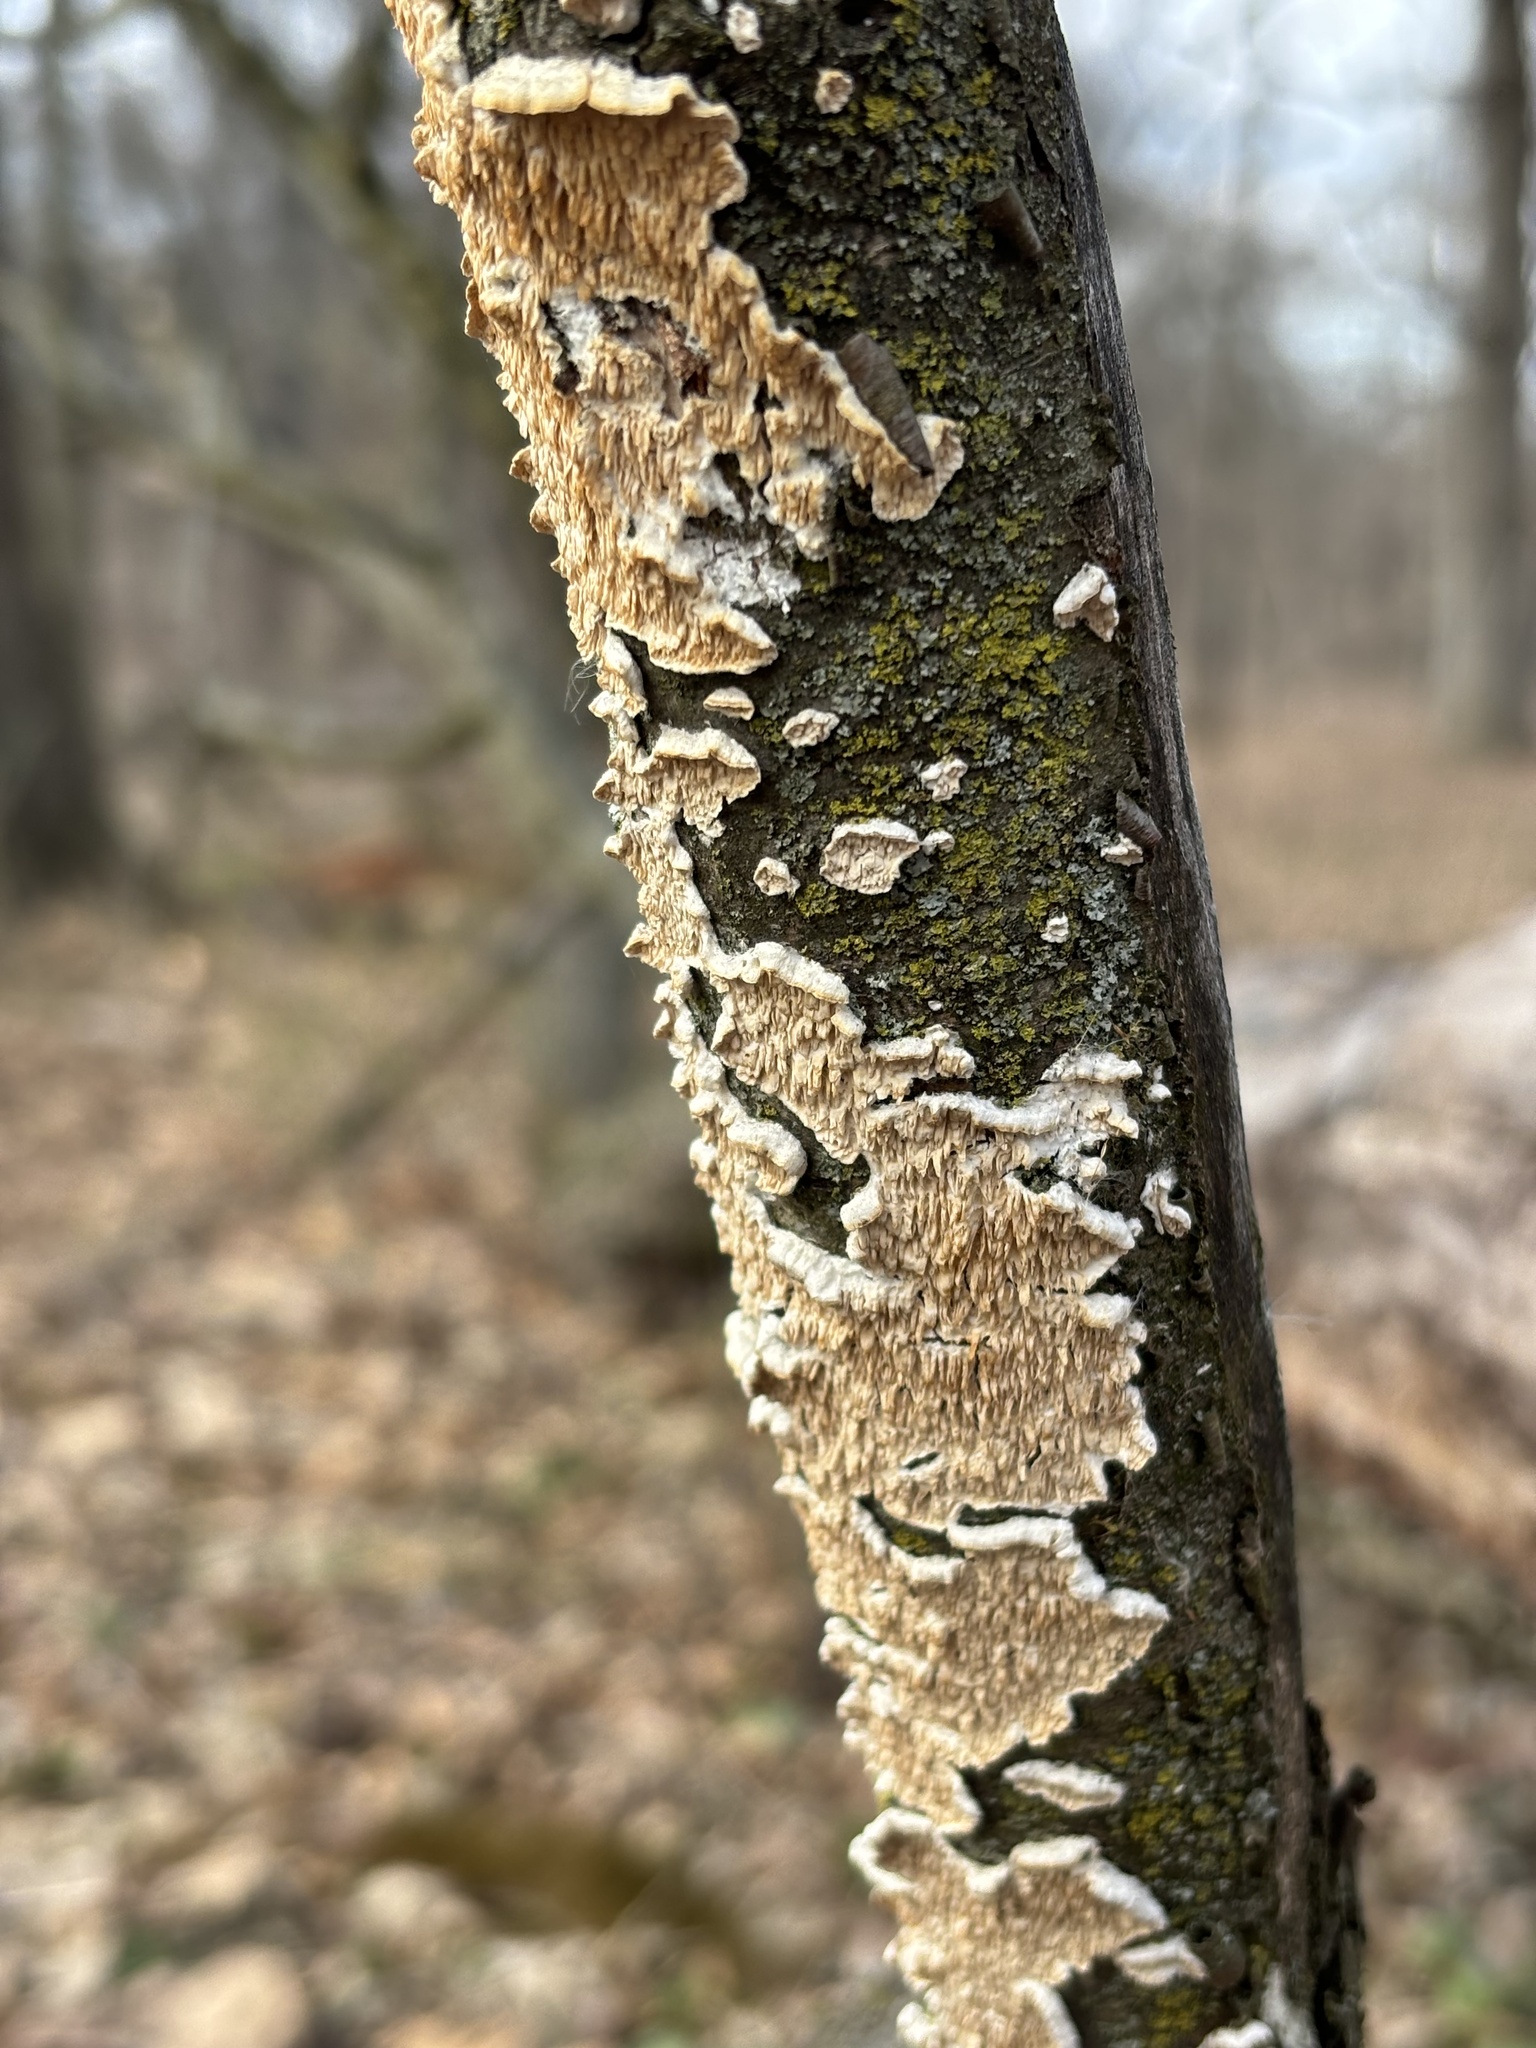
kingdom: Fungi
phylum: Basidiomycota
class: Agaricomycetes
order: Polyporales
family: Irpicaceae
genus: Irpex
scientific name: Irpex lacteus
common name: Milk-white toothed polypore
